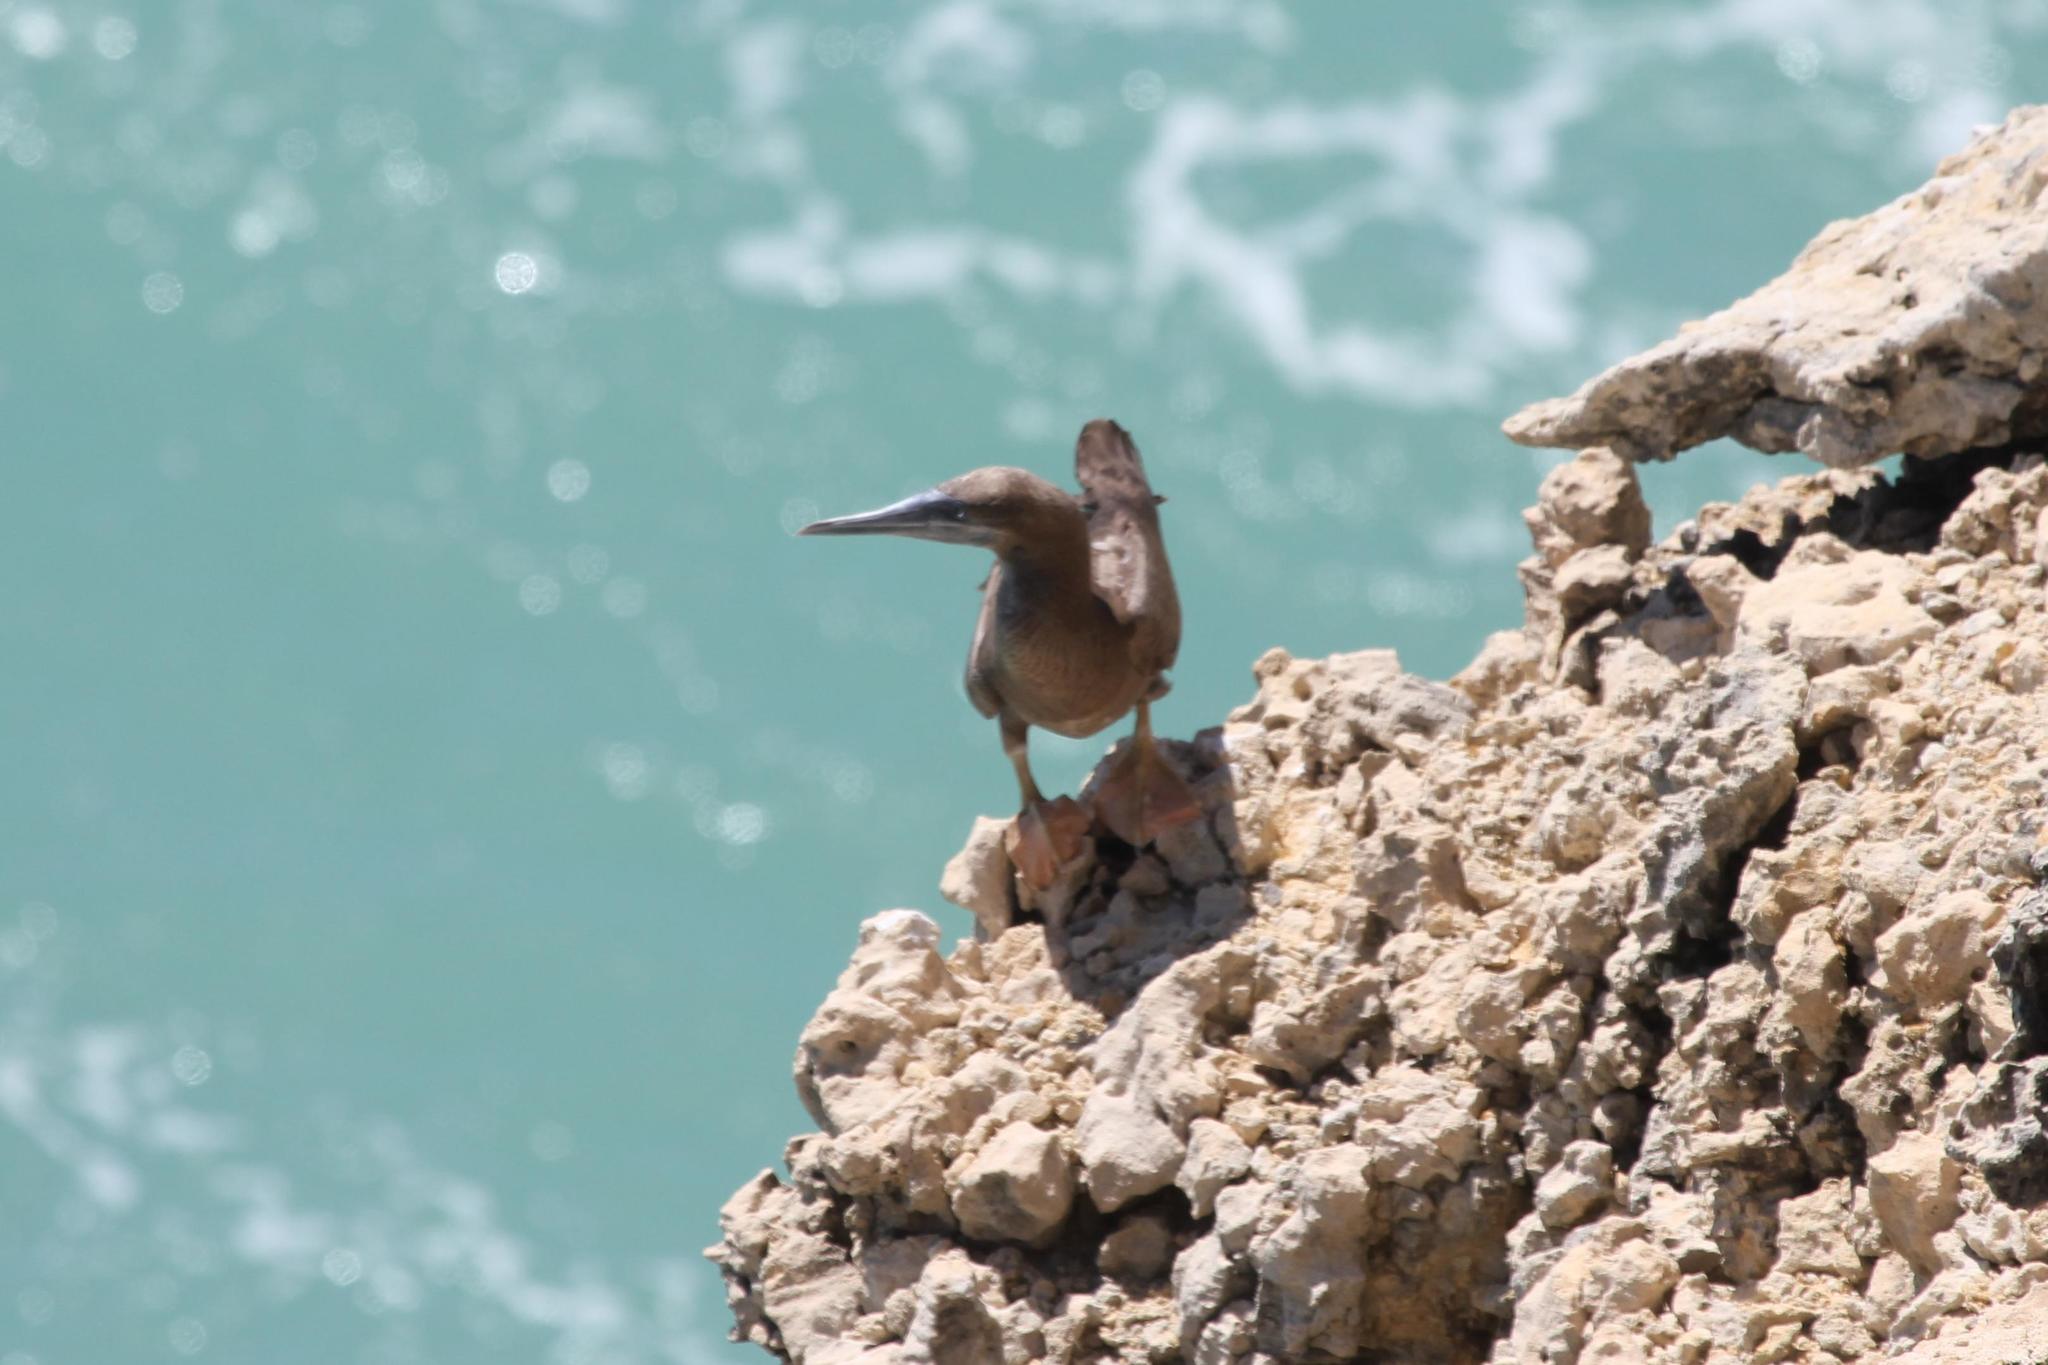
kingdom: Animalia
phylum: Chordata
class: Aves
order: Suliformes
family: Sulidae
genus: Sula
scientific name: Sula leucogaster
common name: Brown booby
